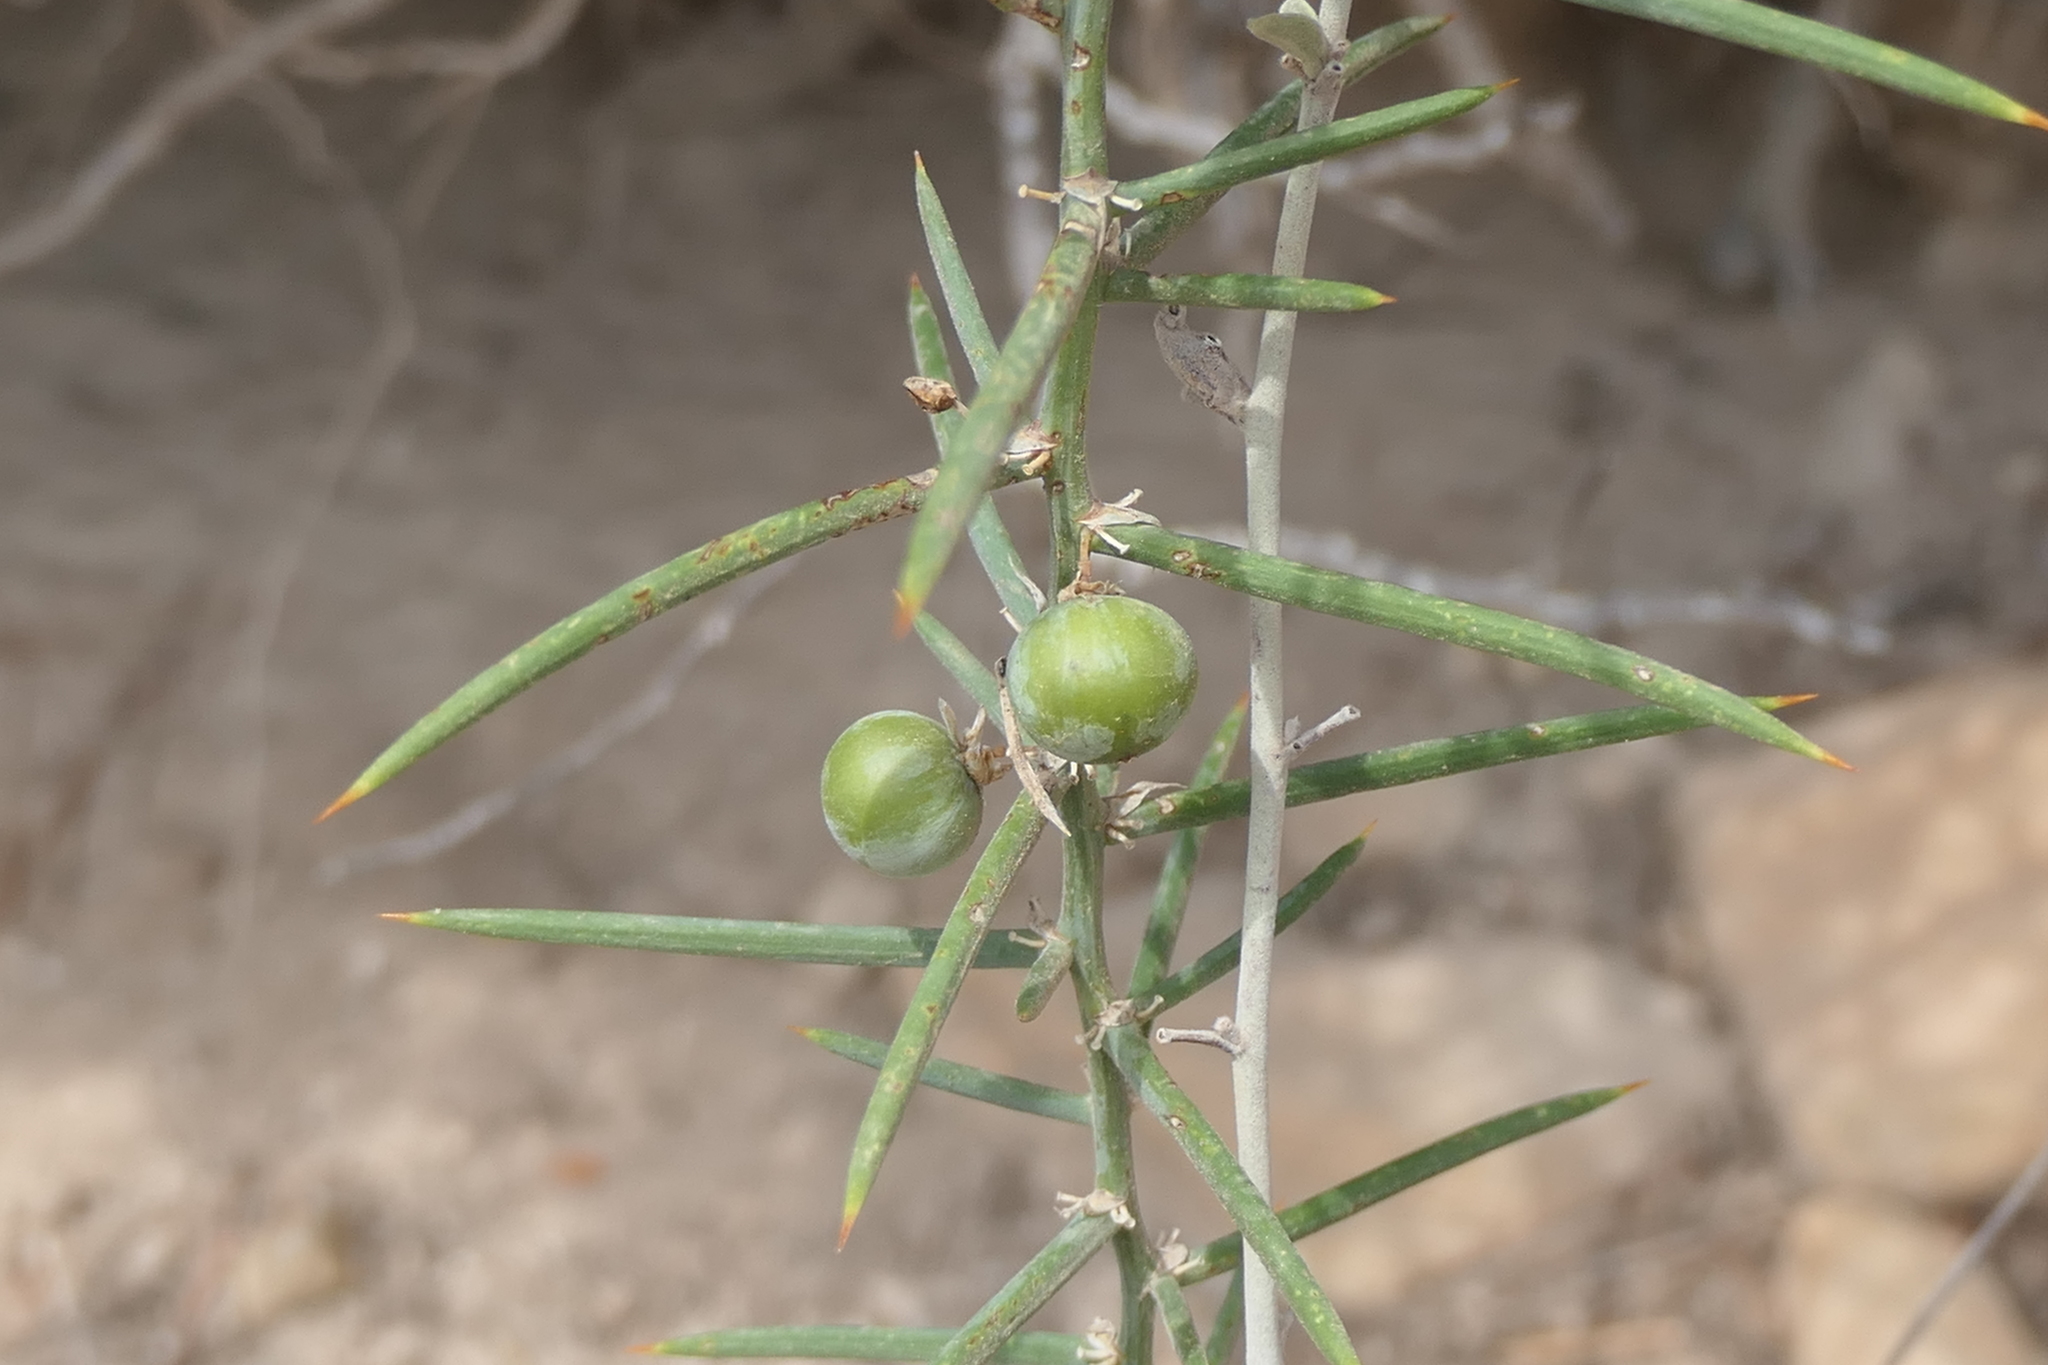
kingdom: Plantae
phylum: Tracheophyta
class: Liliopsida
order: Asparagales
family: Asparagaceae
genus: Asparagus
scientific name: Asparagus horridus
